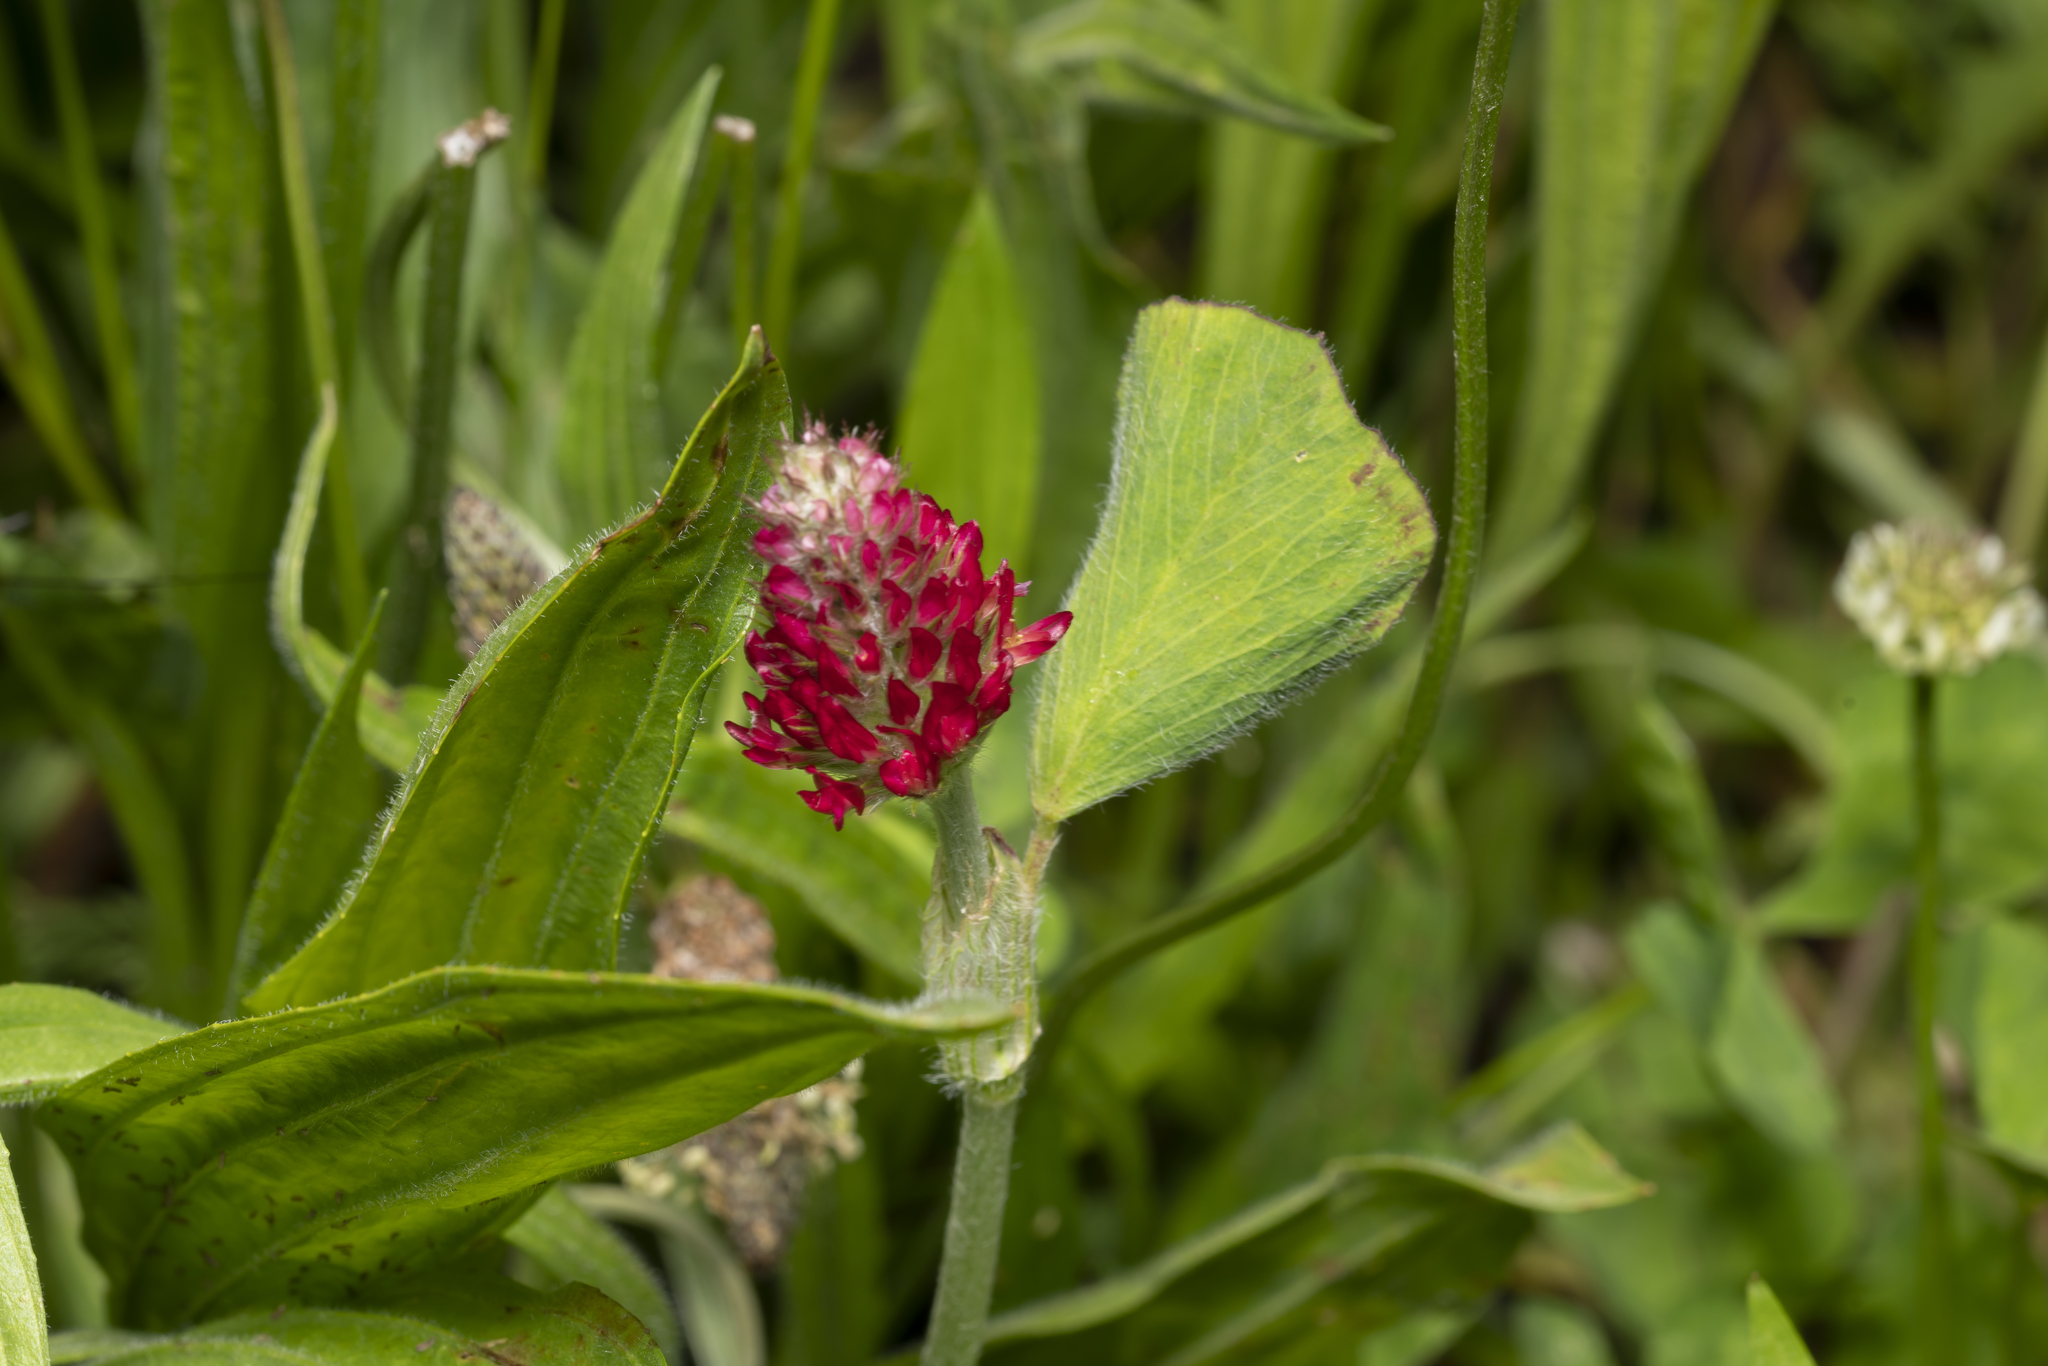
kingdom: Plantae
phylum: Tracheophyta
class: Magnoliopsida
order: Fabales
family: Fabaceae
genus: Trifolium
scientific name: Trifolium incarnatum
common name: Crimson clover
